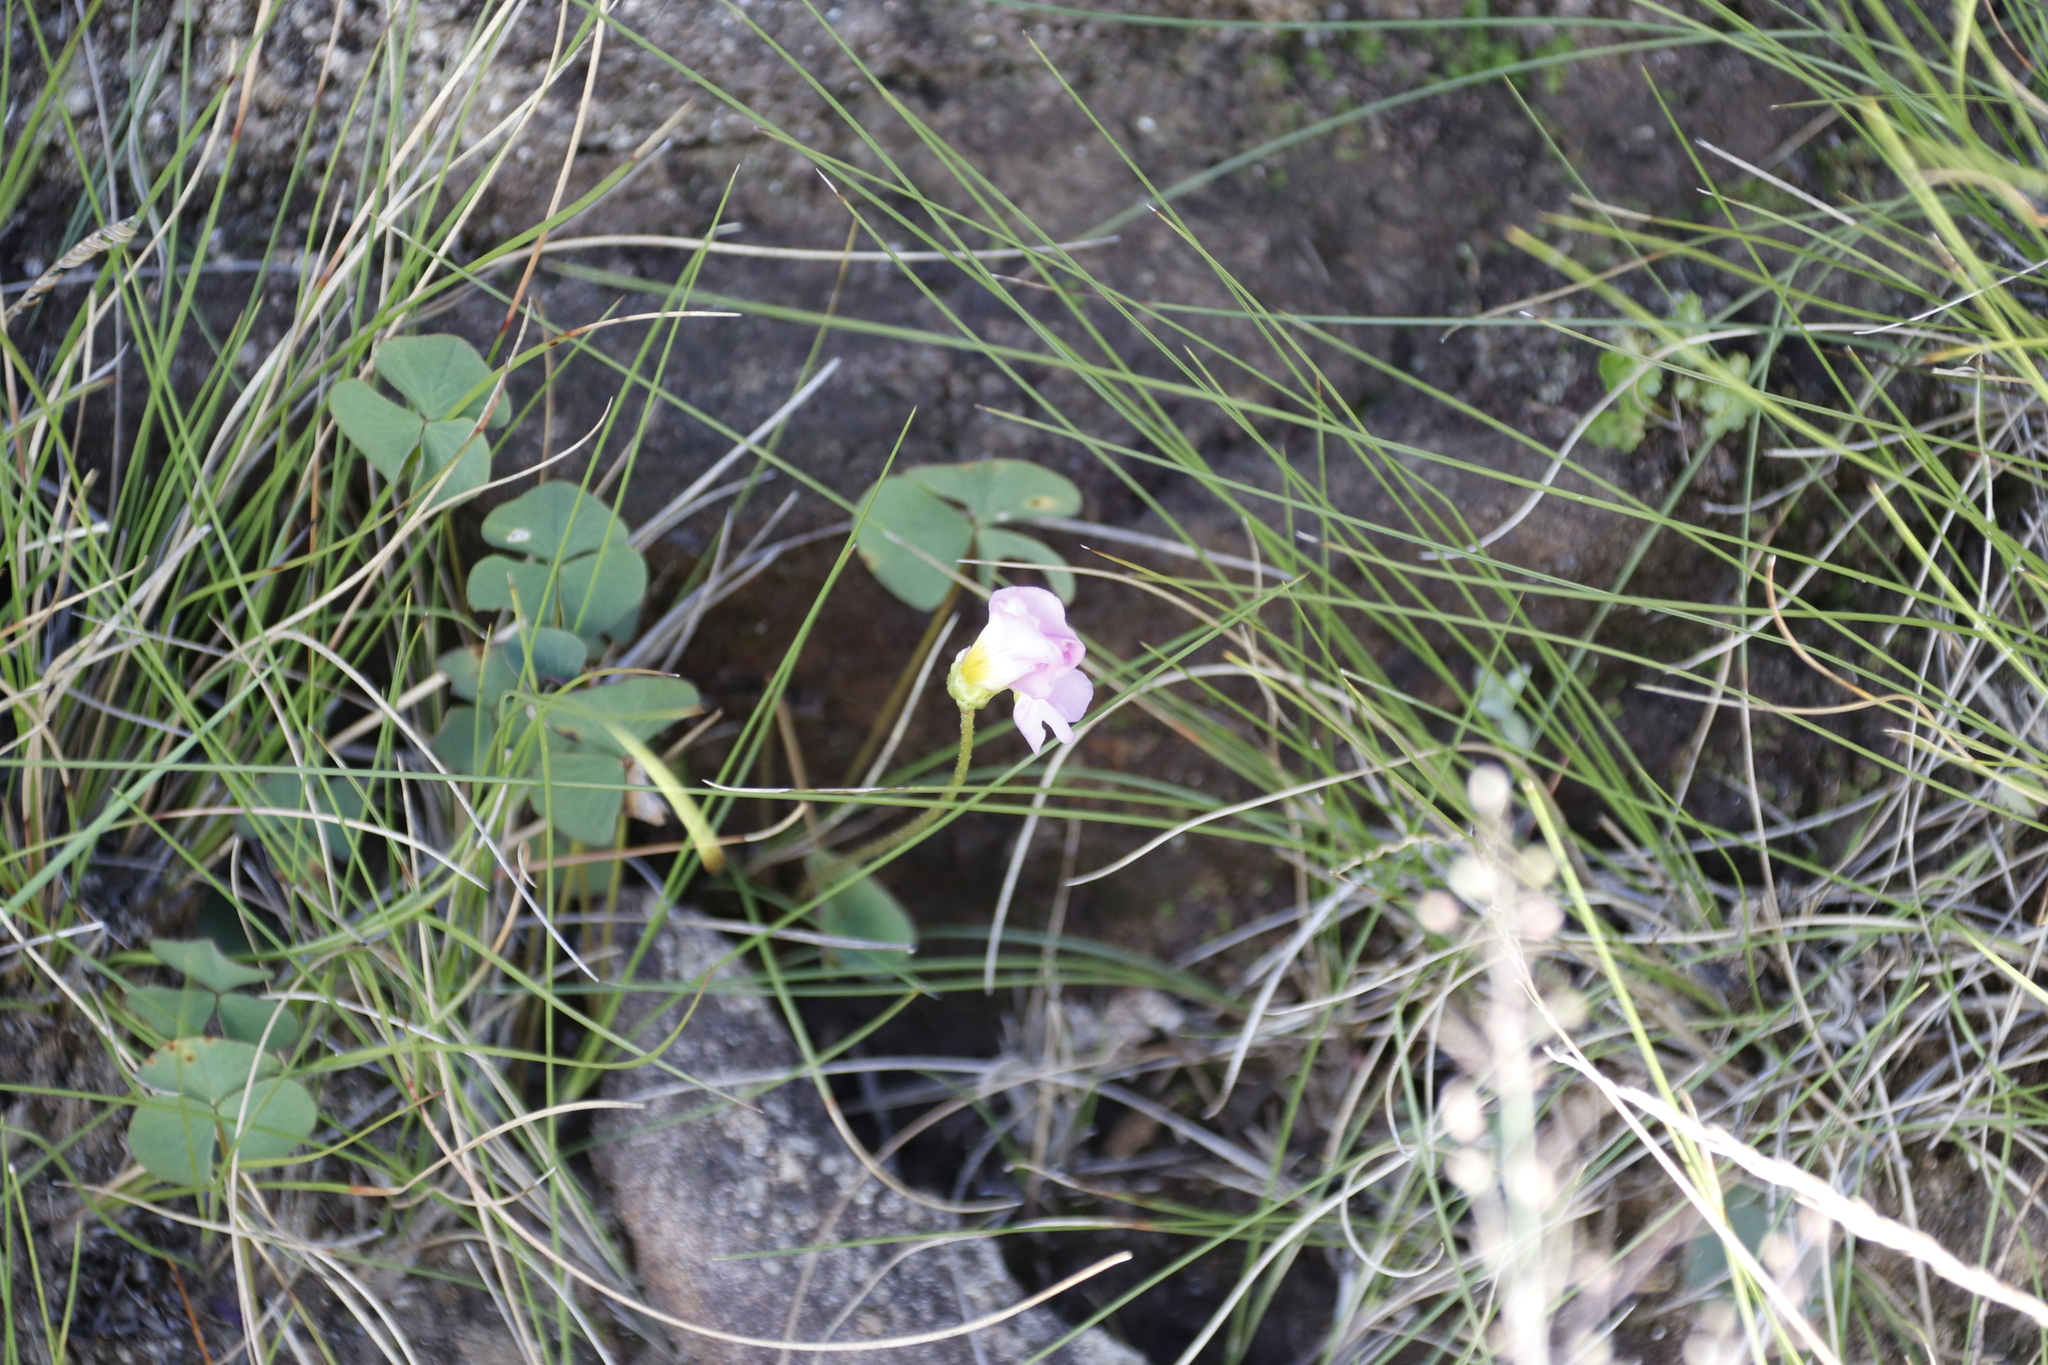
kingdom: Plantae
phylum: Tracheophyta
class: Magnoliopsida
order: Oxalidales
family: Oxalidaceae
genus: Oxalis
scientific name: Oxalis obliquifolia
